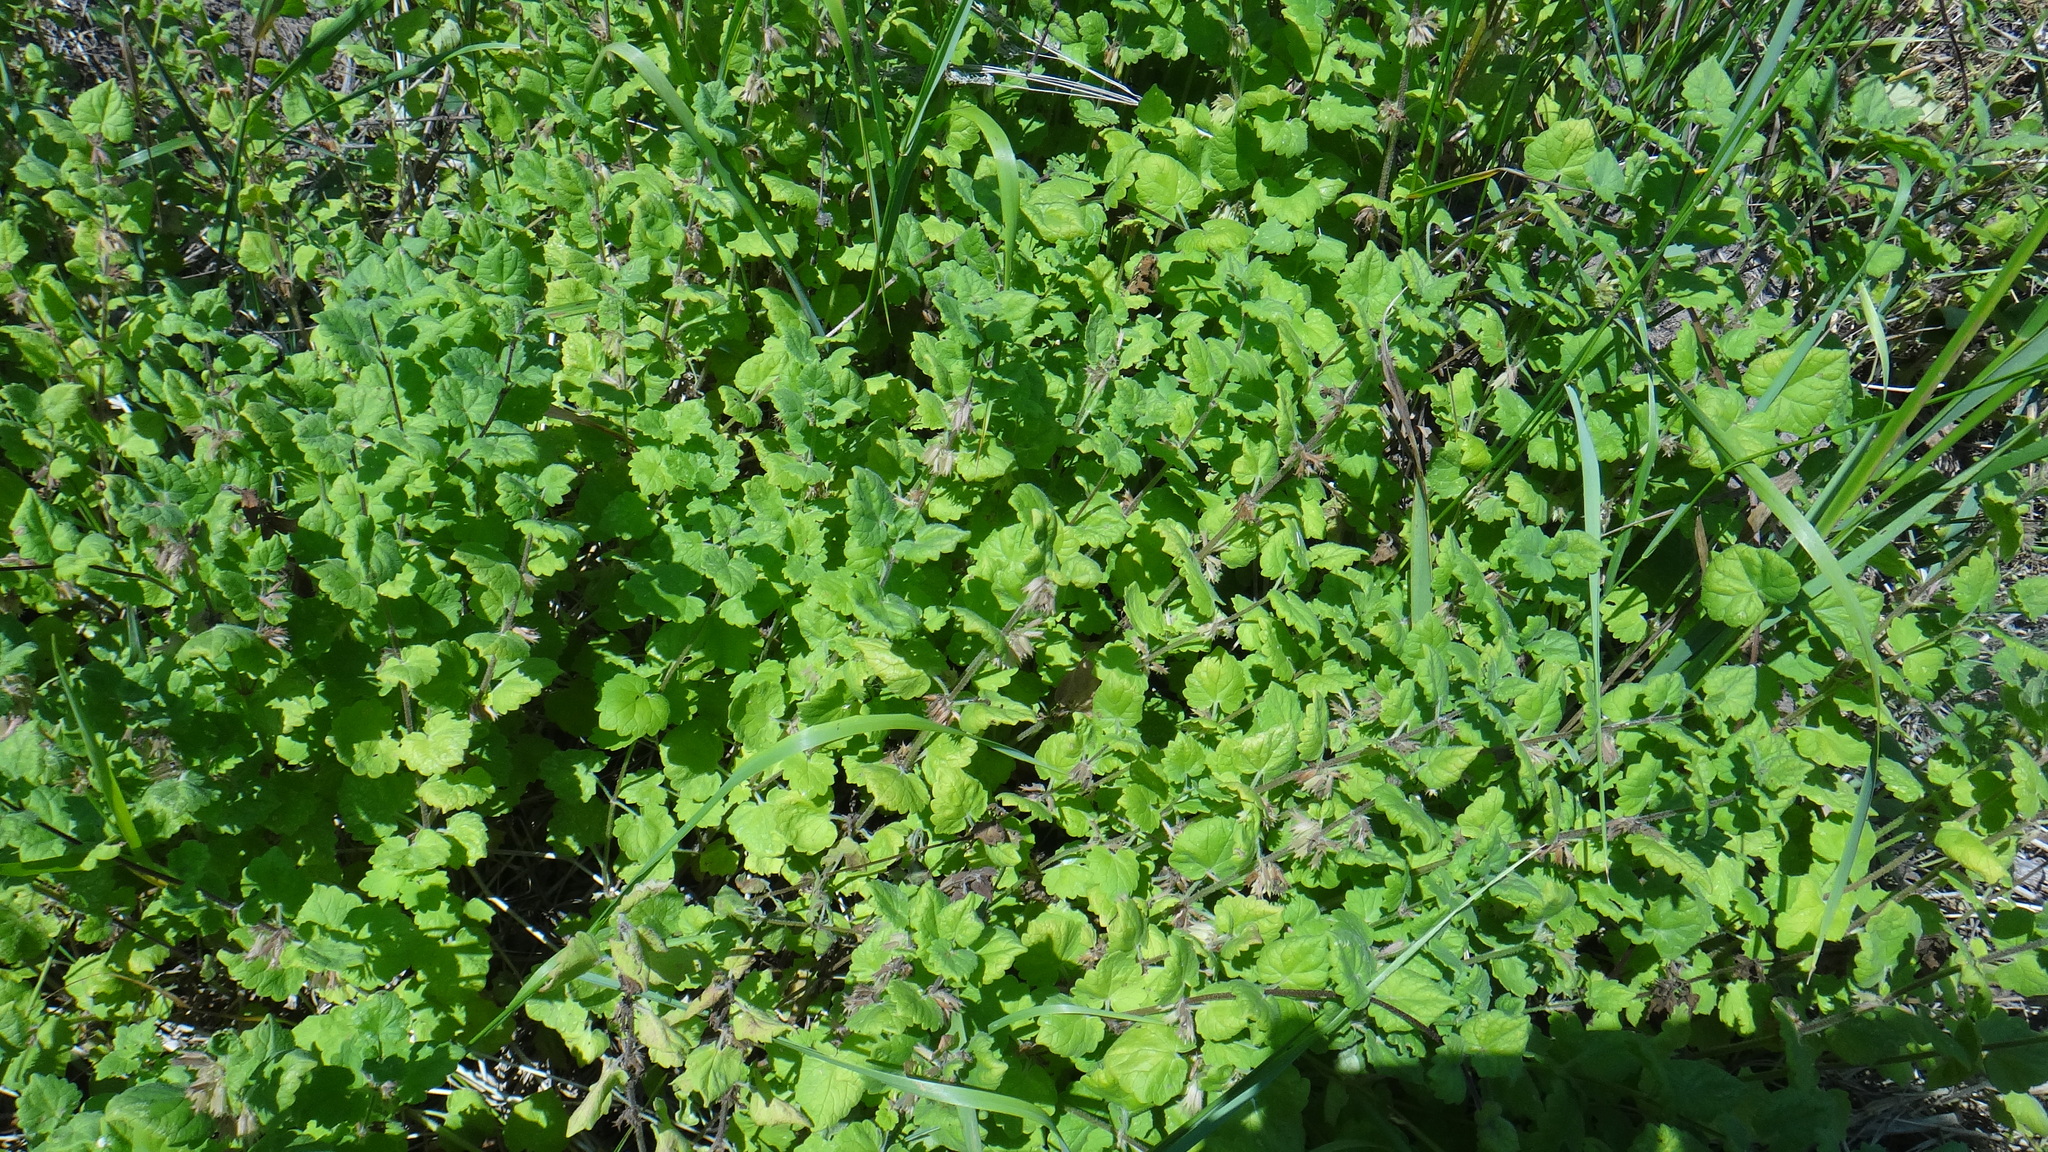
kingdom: Plantae
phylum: Tracheophyta
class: Magnoliopsida
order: Lamiales
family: Lamiaceae
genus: Glechoma
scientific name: Glechoma hederacea
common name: Ground ivy
